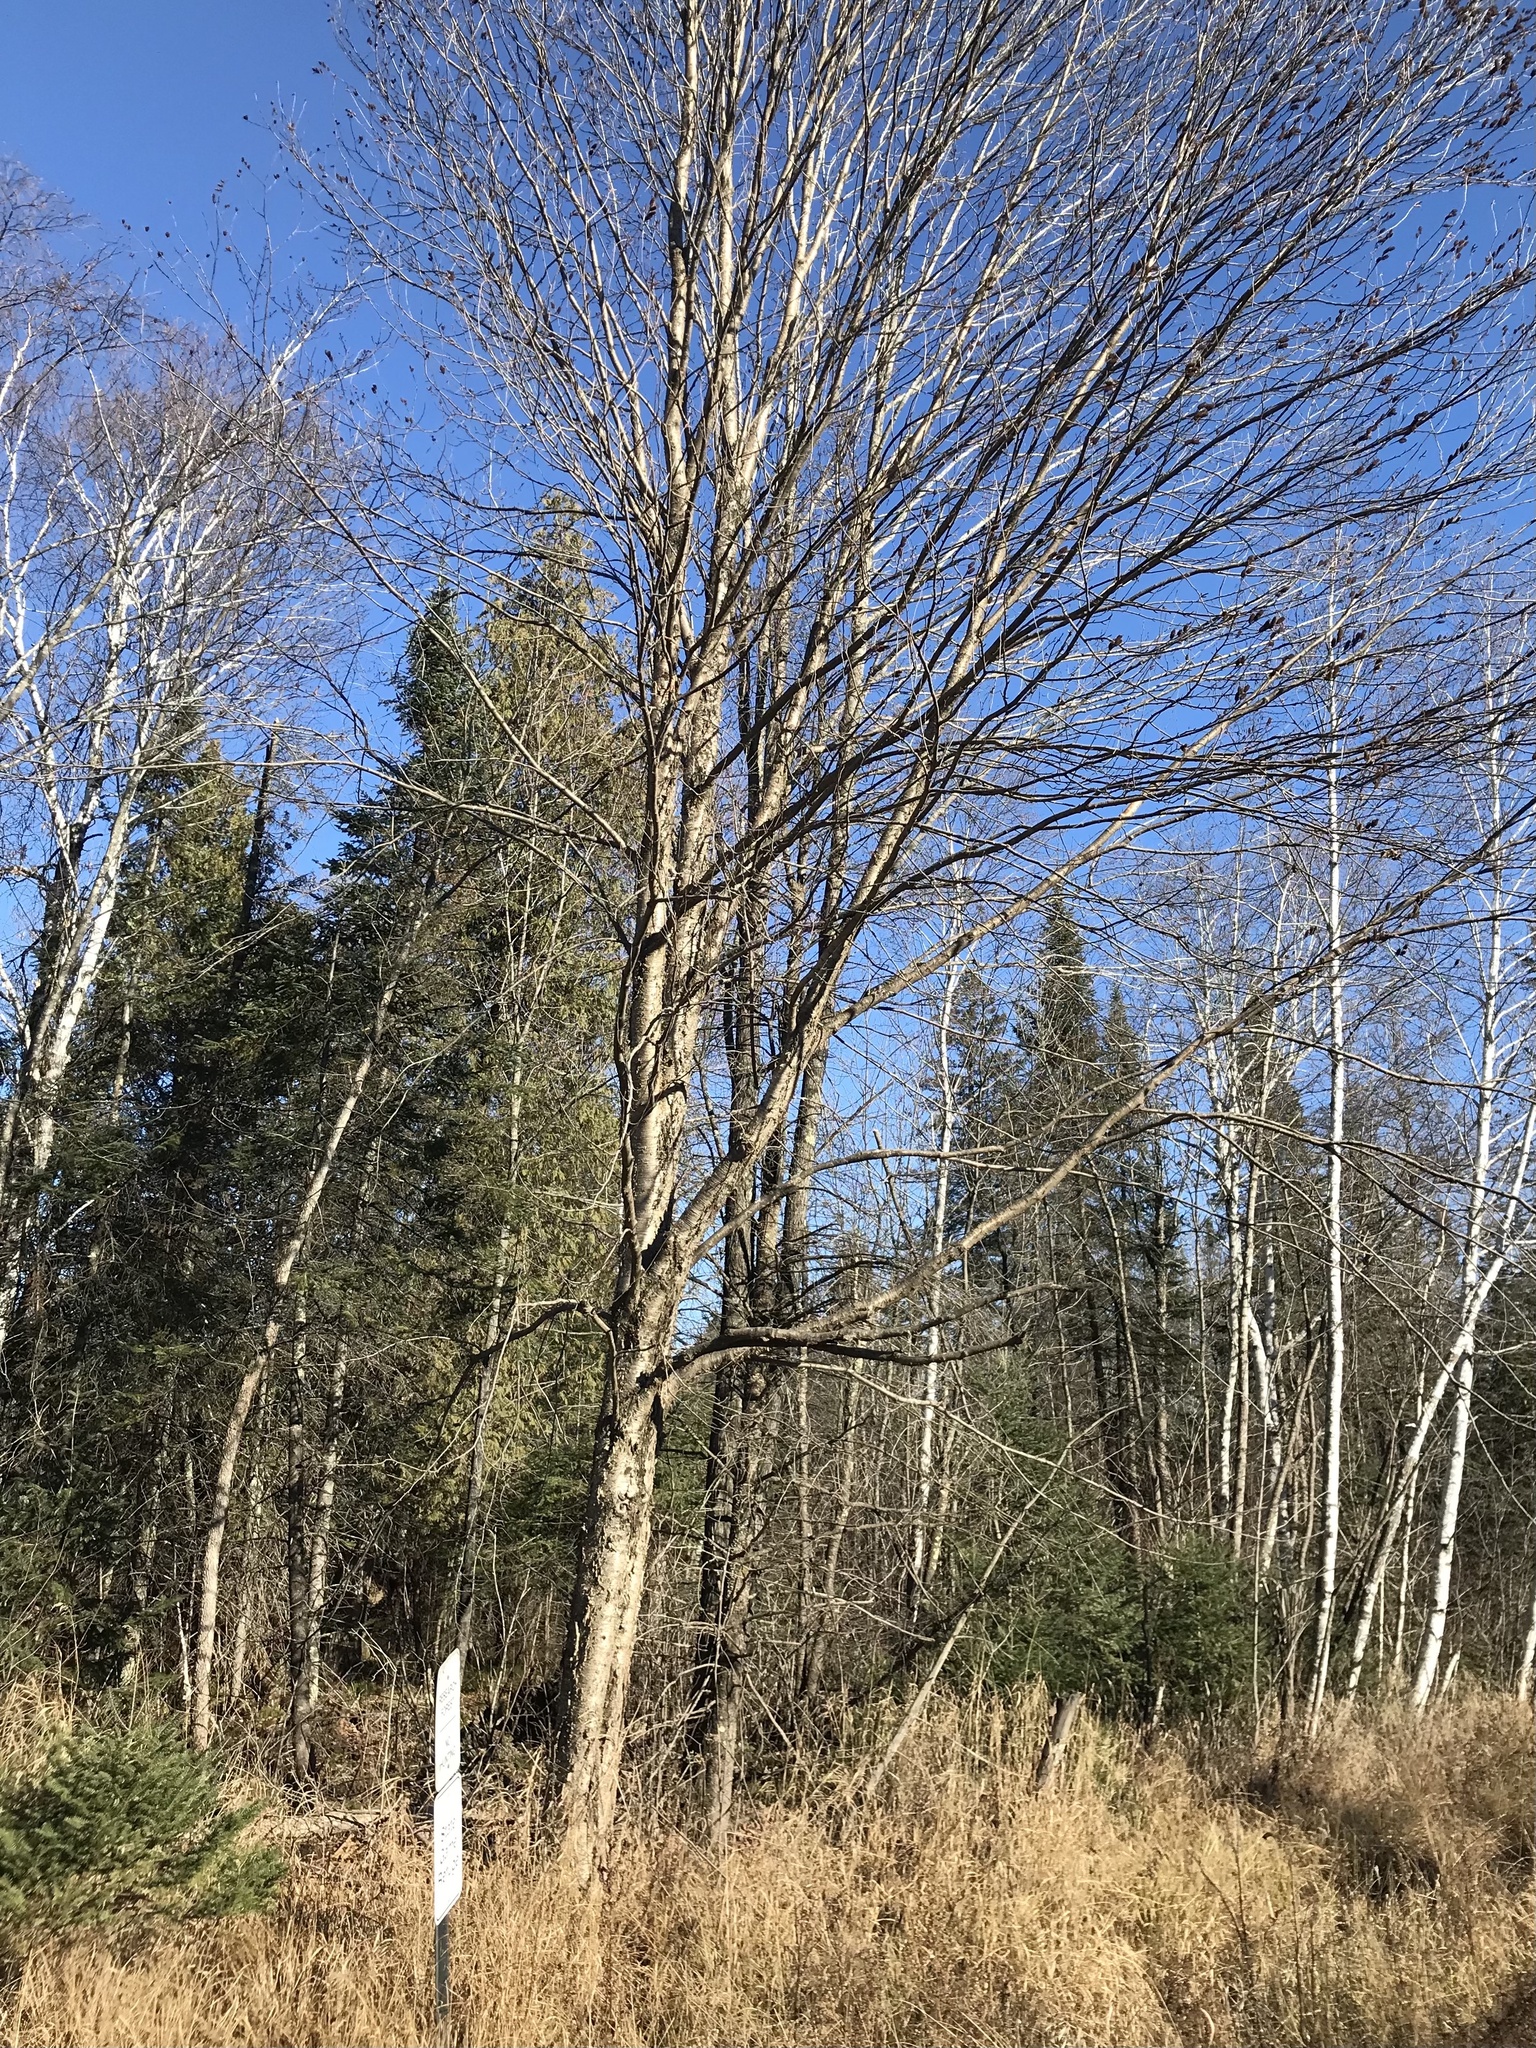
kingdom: Plantae
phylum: Tracheophyta
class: Magnoliopsida
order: Fagales
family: Betulaceae
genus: Betula
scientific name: Betula alleghaniensis
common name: Yellow birch
